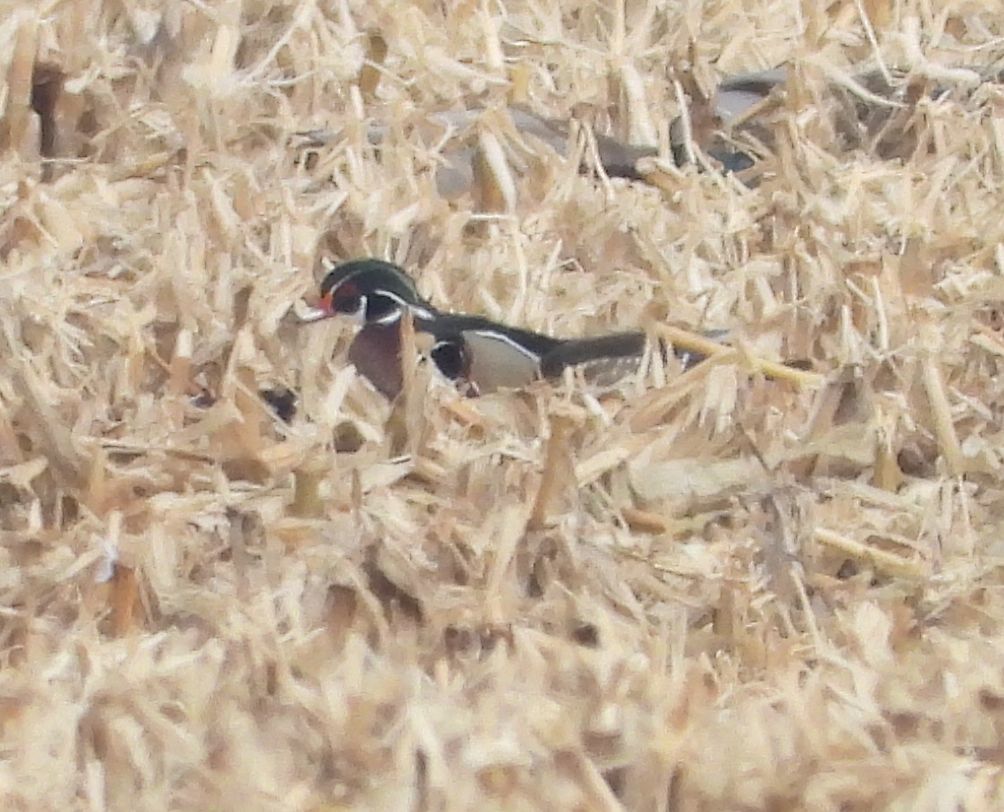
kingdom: Animalia
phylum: Chordata
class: Aves
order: Anseriformes
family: Anatidae
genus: Aix
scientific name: Aix sponsa
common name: Wood duck
